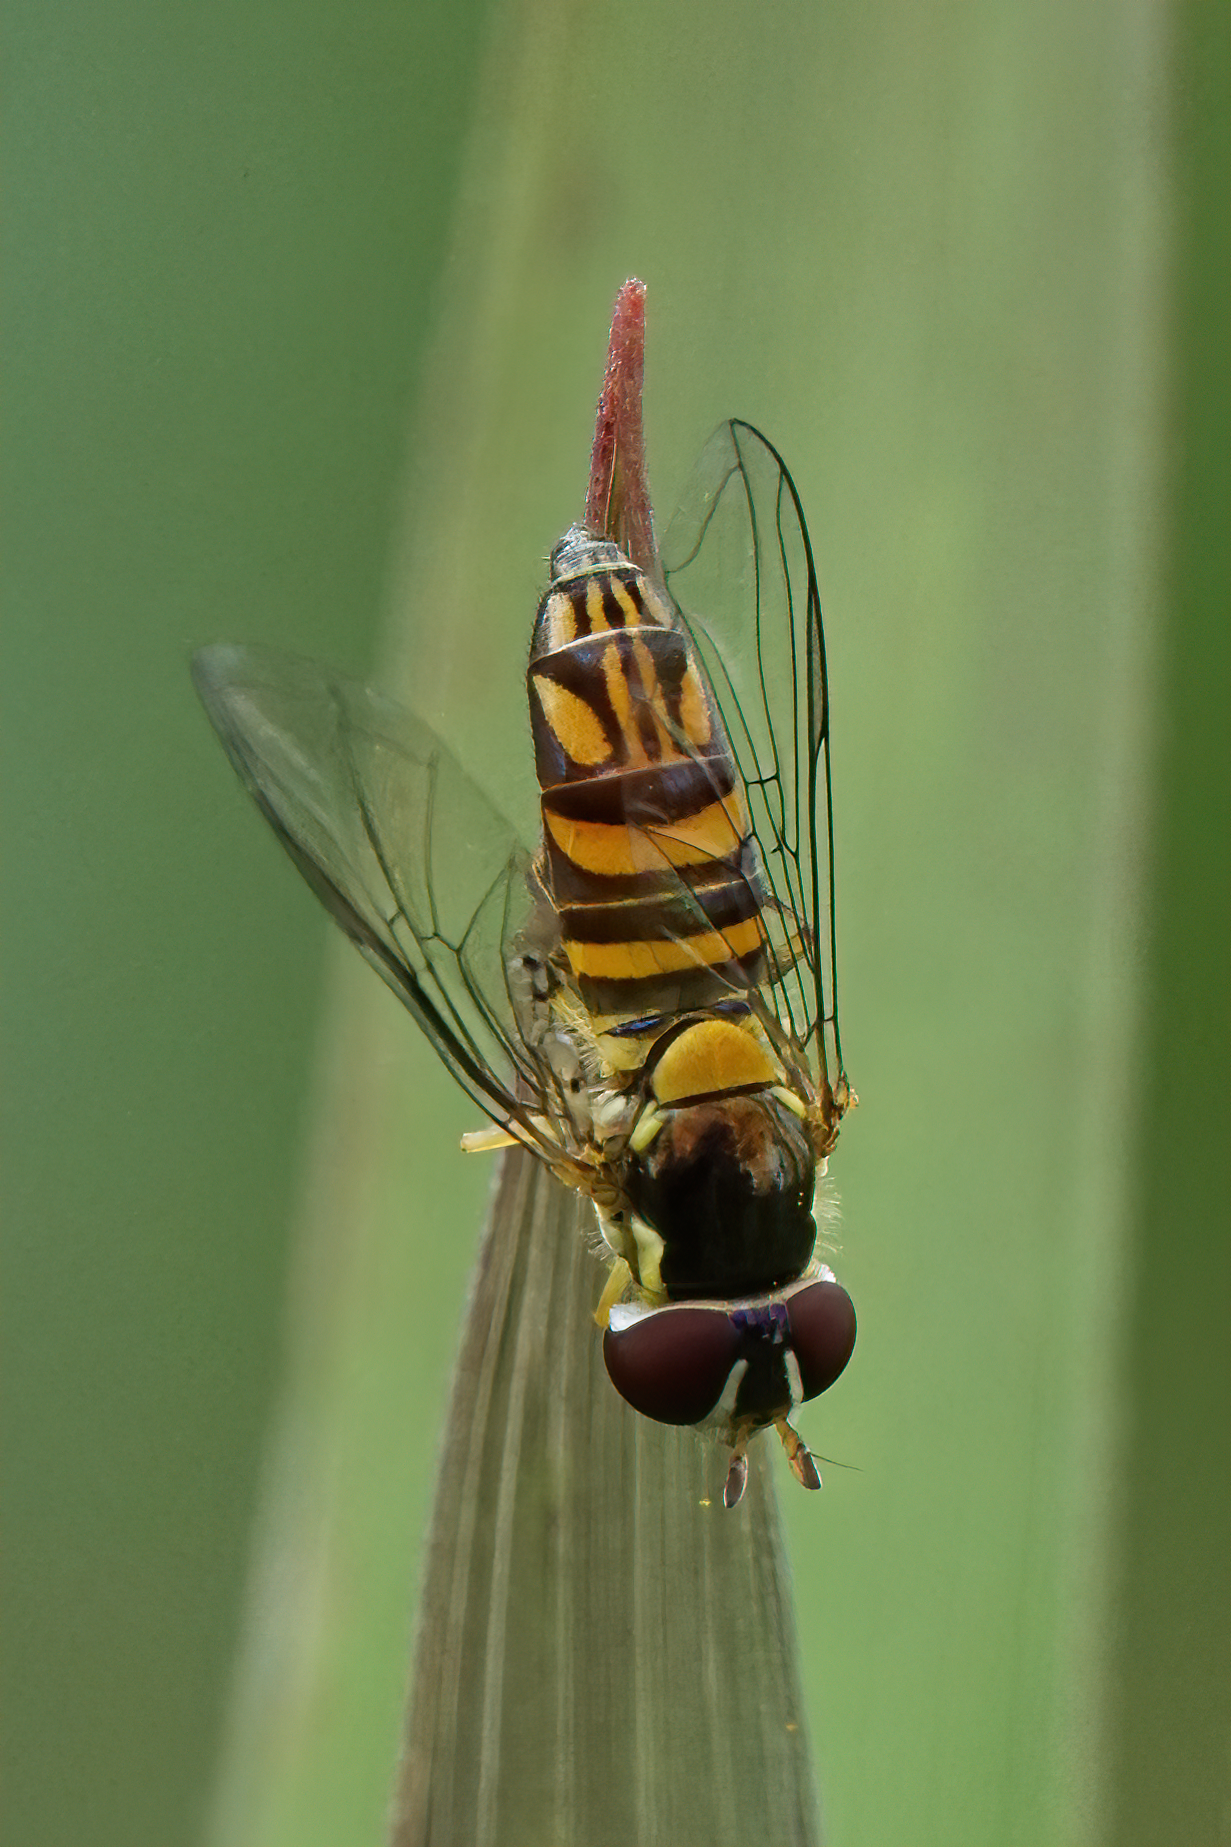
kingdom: Animalia
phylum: Arthropoda
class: Insecta
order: Diptera
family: Syrphidae
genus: Allograpta
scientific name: Allograpta obliqua
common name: Common oblique syrphid
